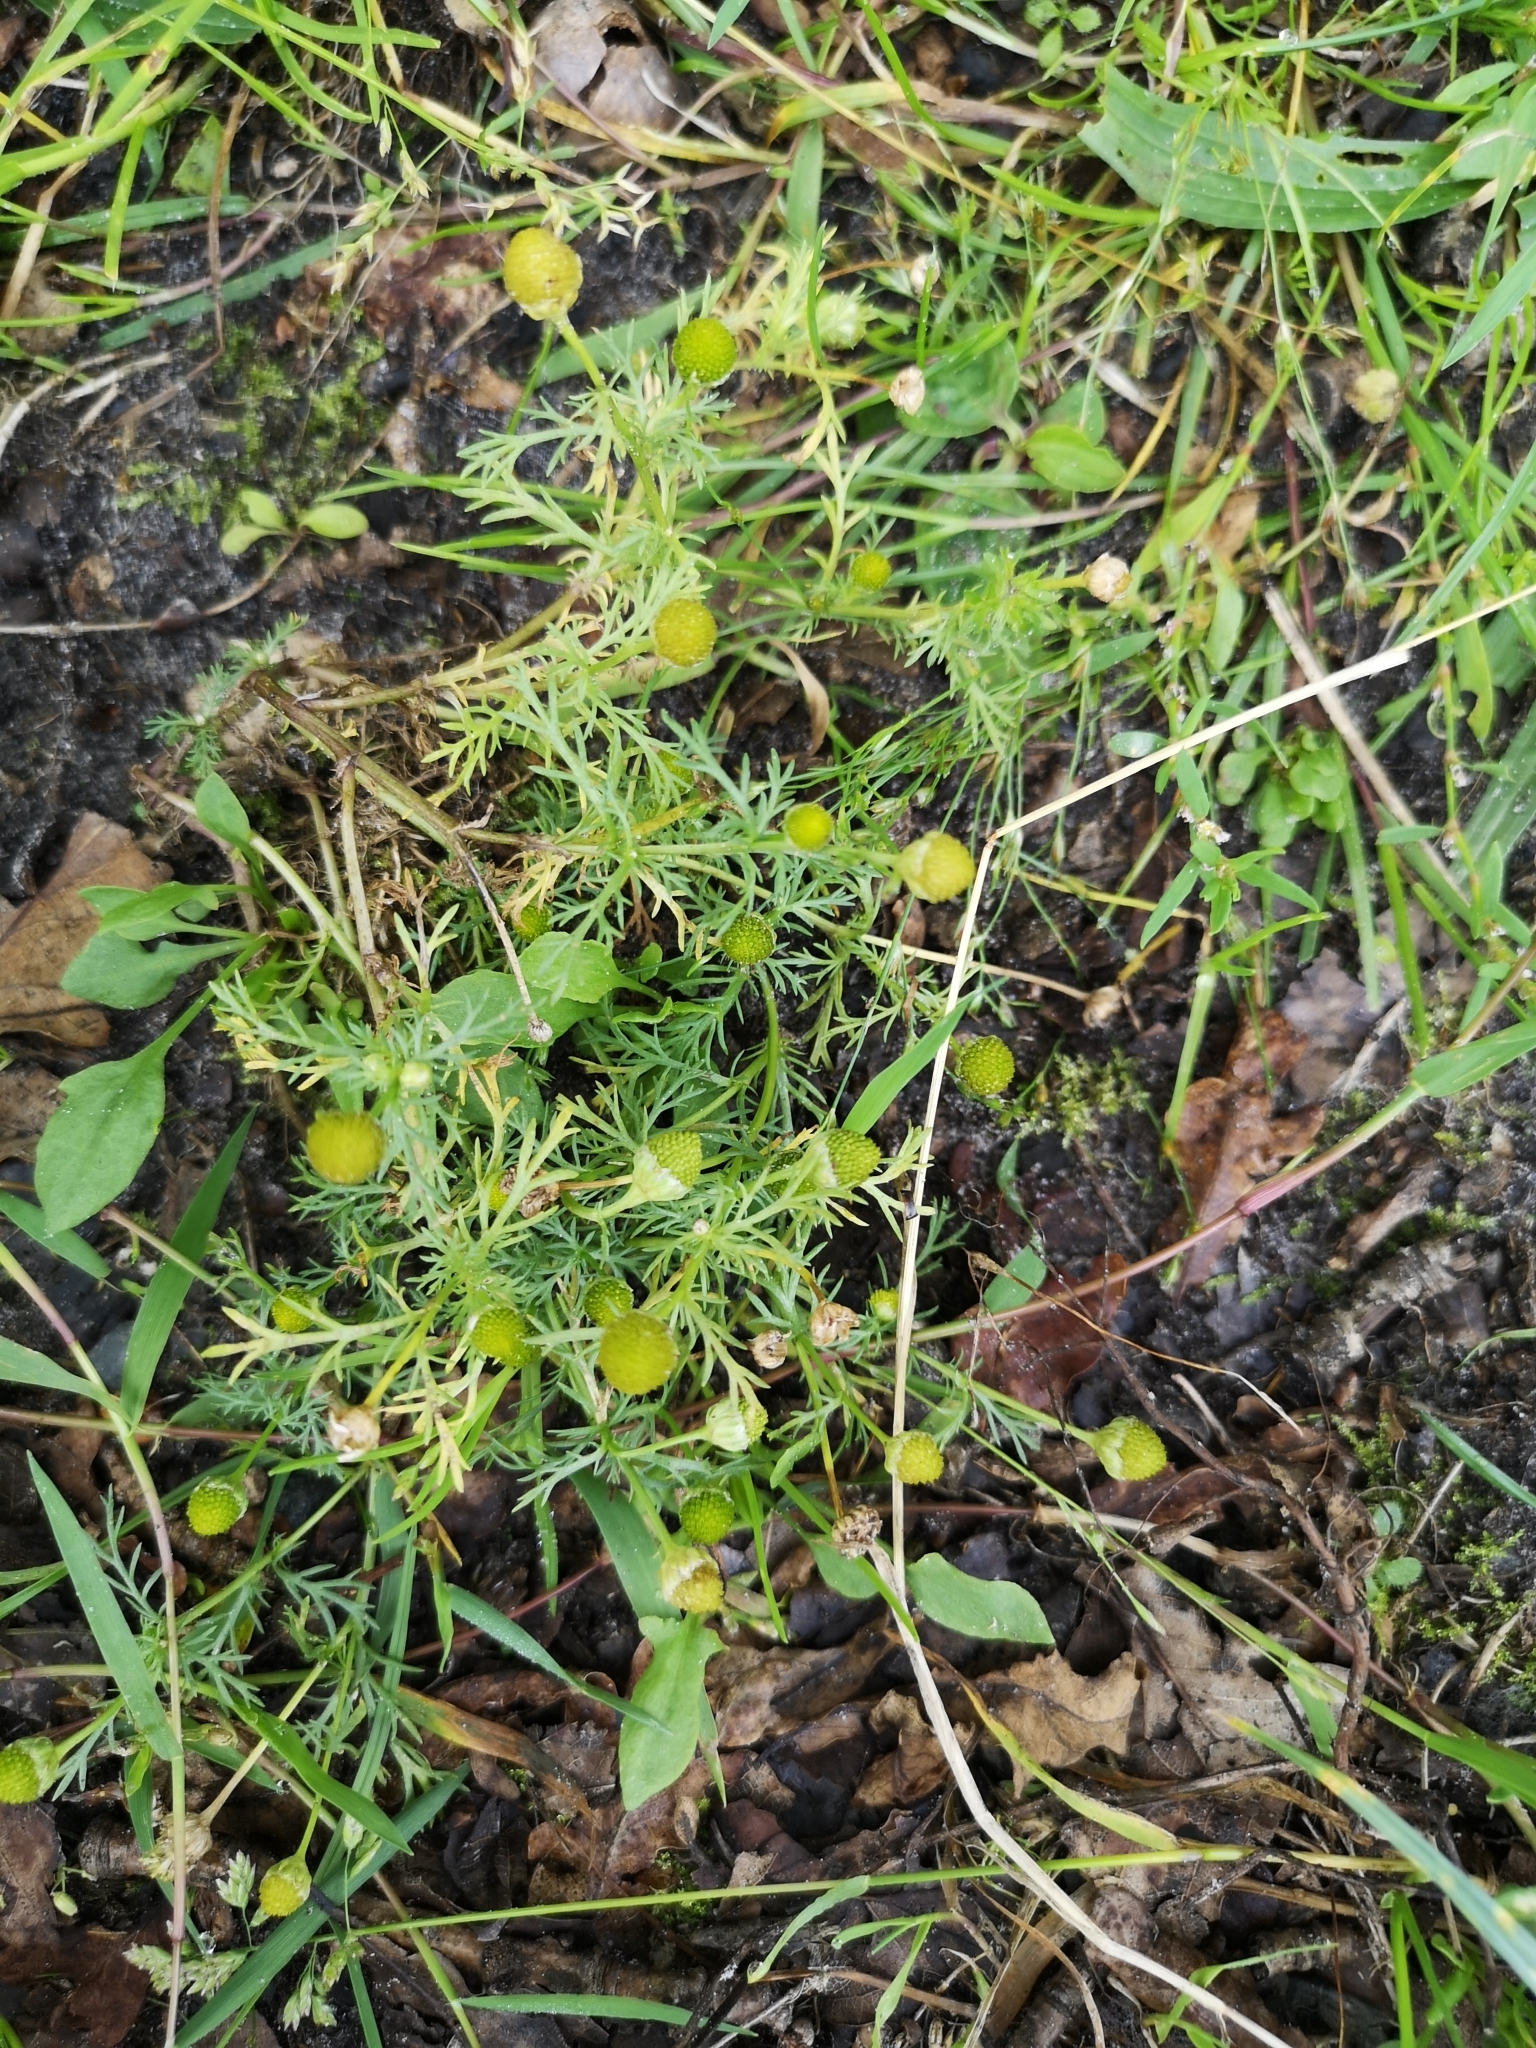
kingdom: Plantae
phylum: Tracheophyta
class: Magnoliopsida
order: Asterales
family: Asteraceae
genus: Matricaria
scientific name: Matricaria discoidea
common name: Disc mayweed
